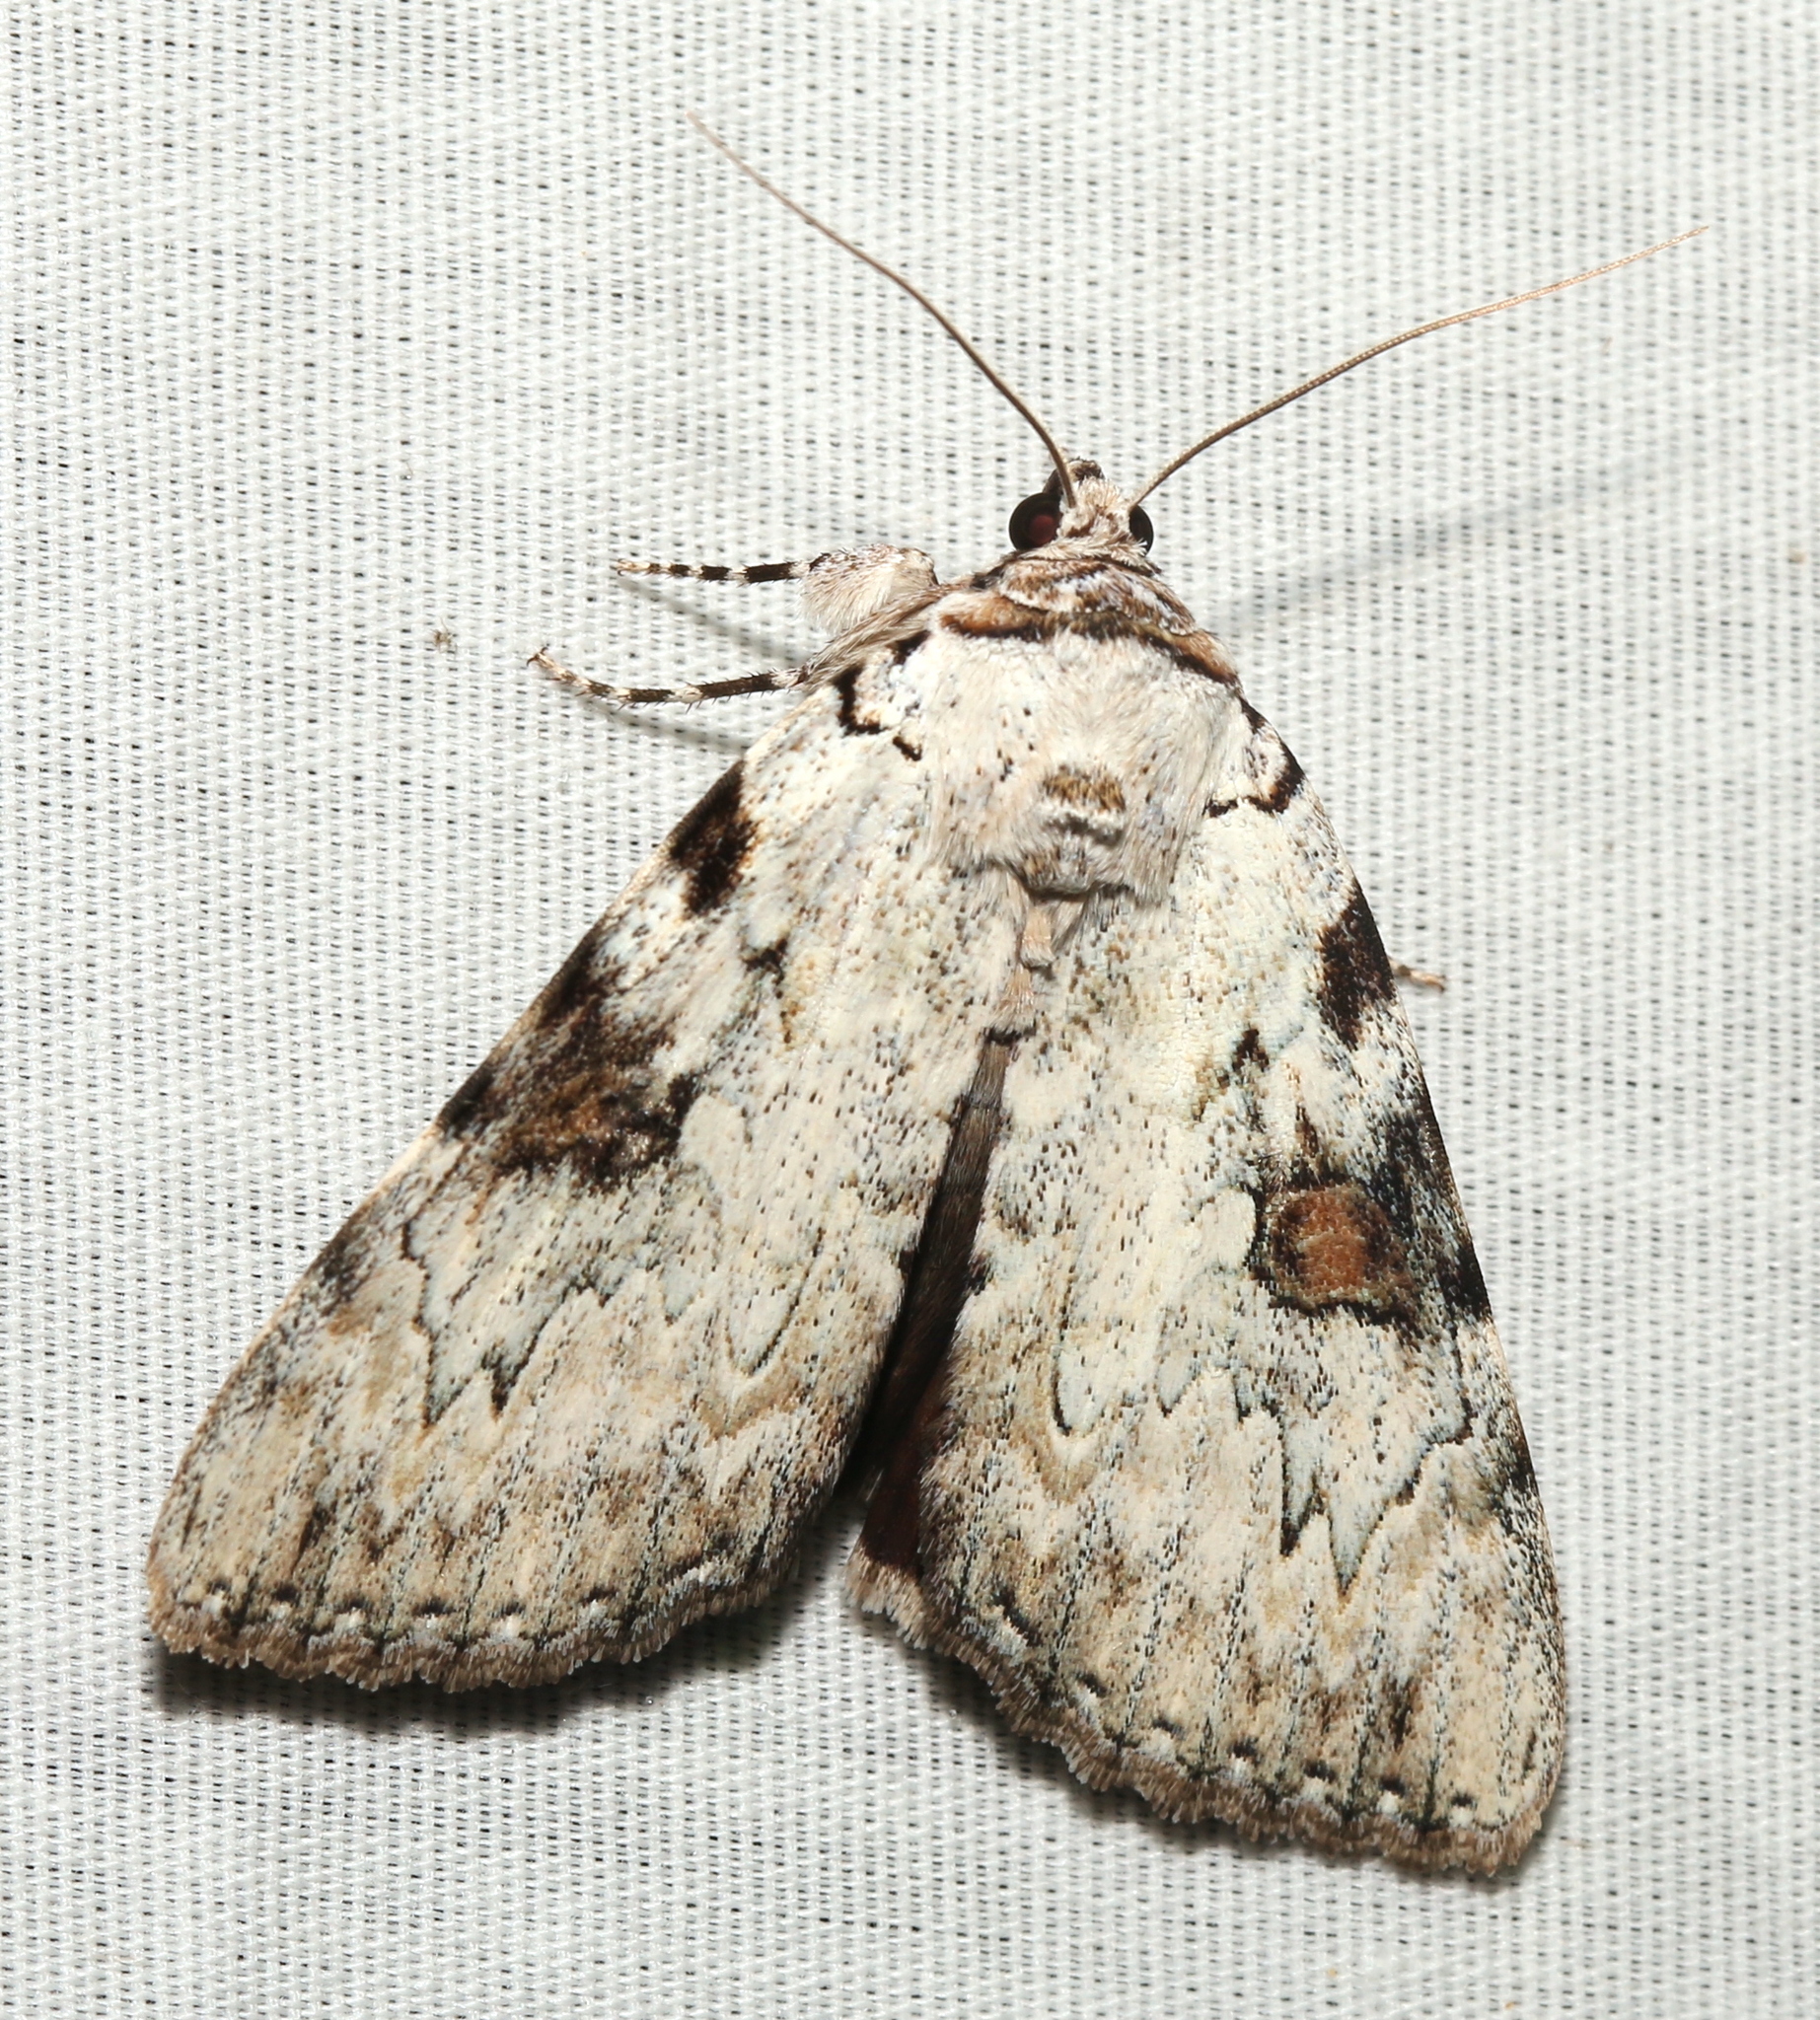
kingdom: Animalia
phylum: Arthropoda
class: Insecta
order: Lepidoptera
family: Erebidae
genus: Catocala
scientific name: Catocala sappho
